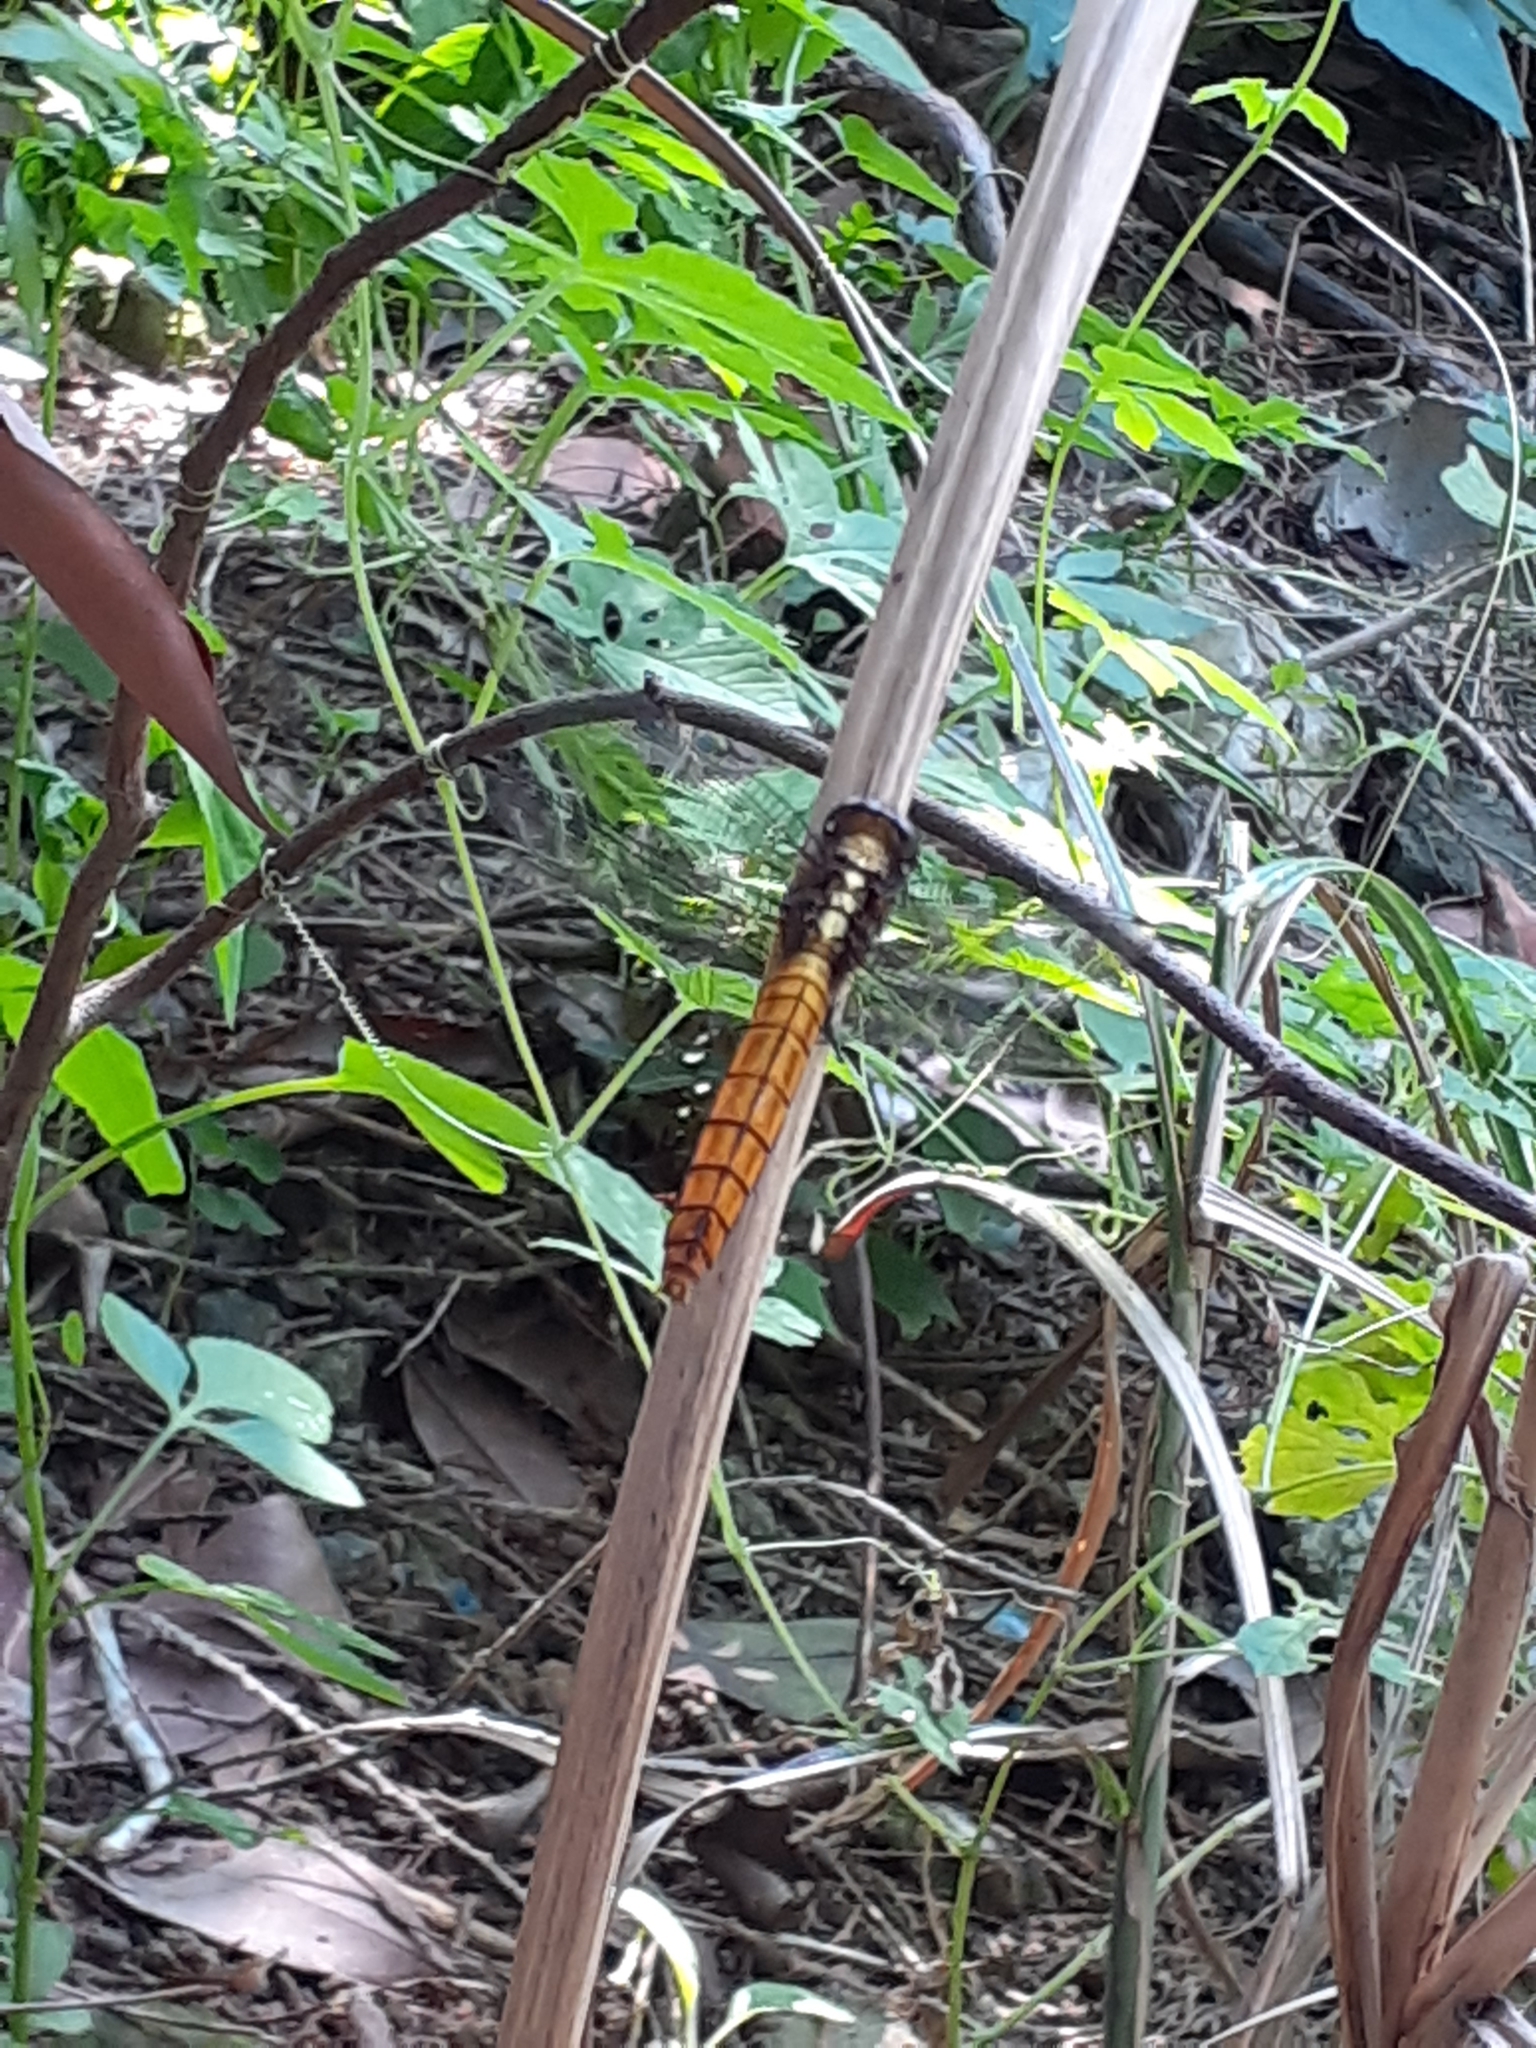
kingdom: Animalia
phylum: Arthropoda
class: Insecta
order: Odonata
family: Libellulidae
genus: Orthetrum
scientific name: Orthetrum pruinosum
